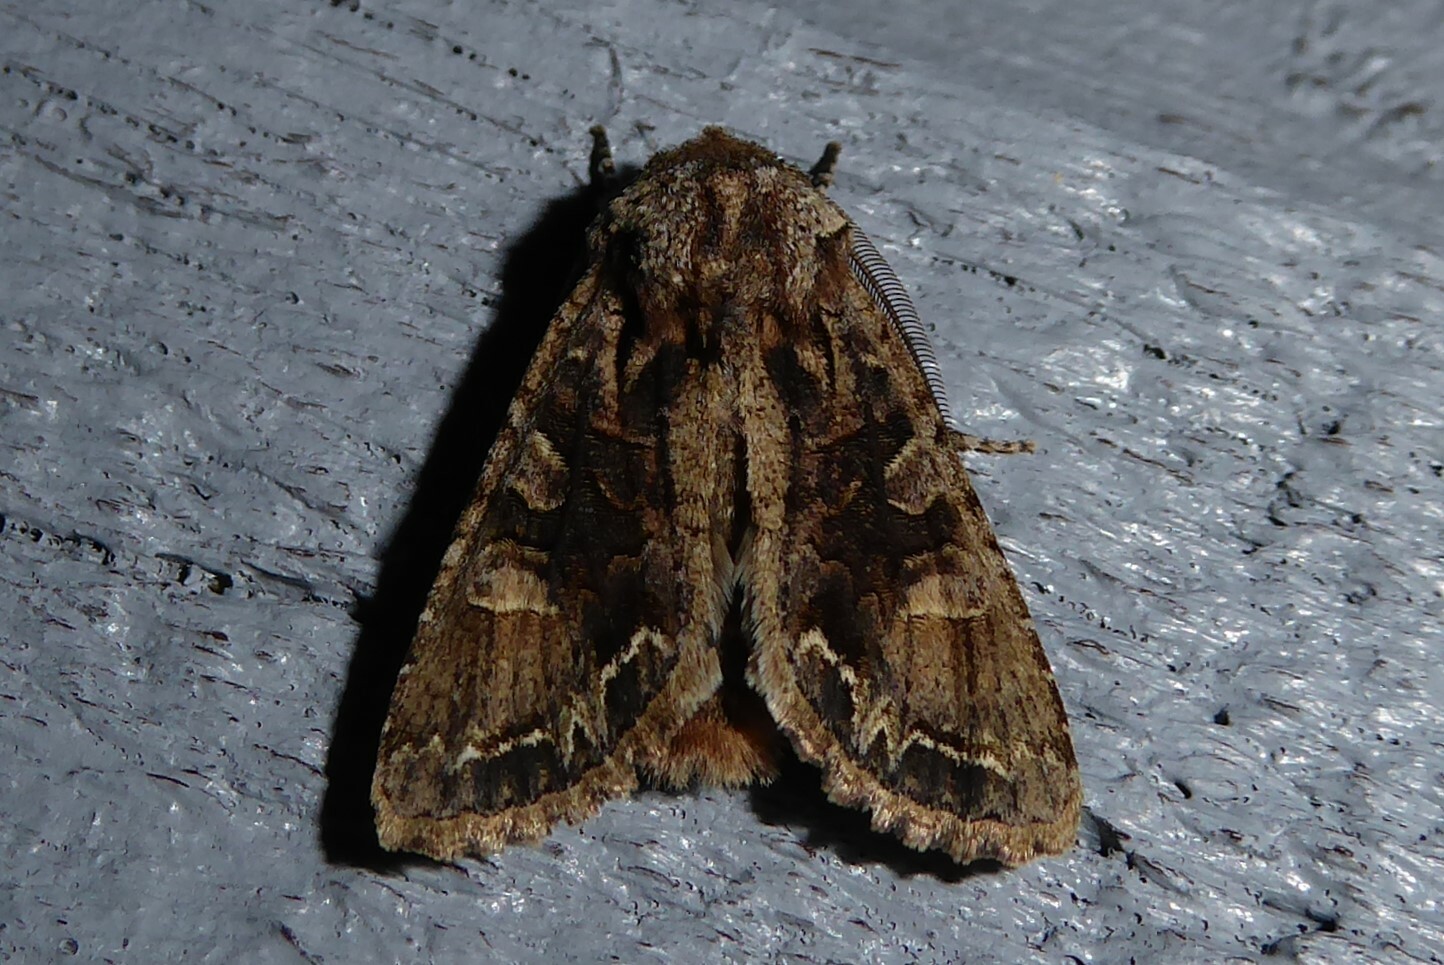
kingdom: Animalia
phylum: Arthropoda
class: Insecta
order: Lepidoptera
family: Noctuidae
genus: Ichneutica
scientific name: Ichneutica skelloni
